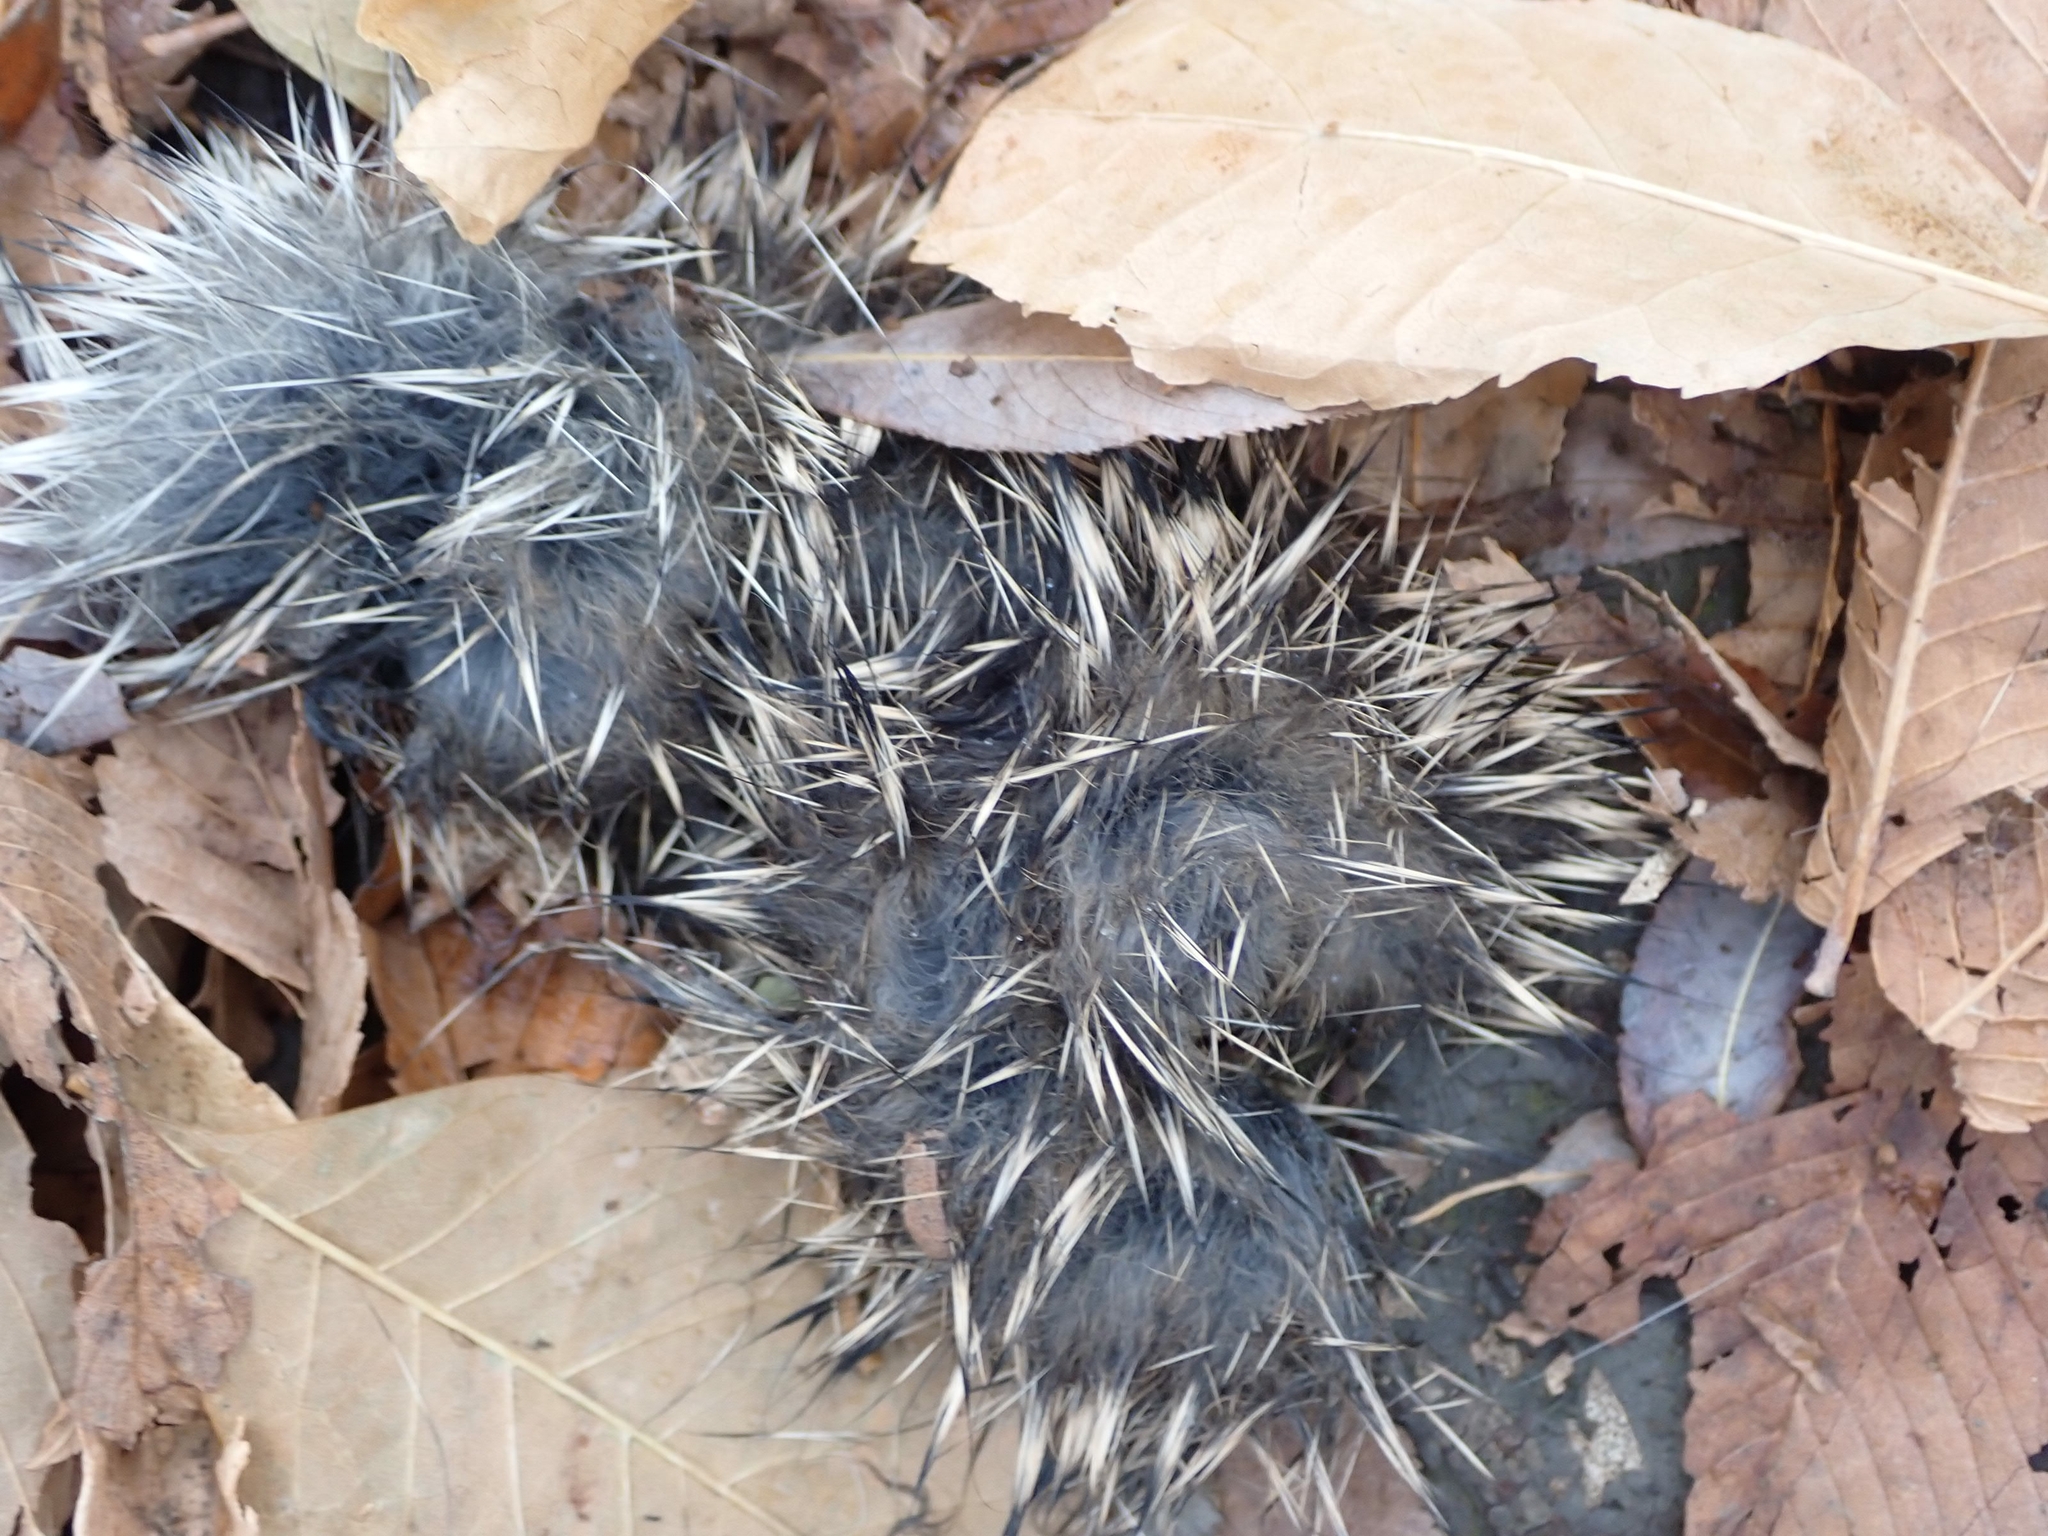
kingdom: Animalia
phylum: Chordata
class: Mammalia
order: Lagomorpha
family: Leporidae
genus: Sylvilagus
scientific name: Sylvilagus floridanus
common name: Eastern cottontail
